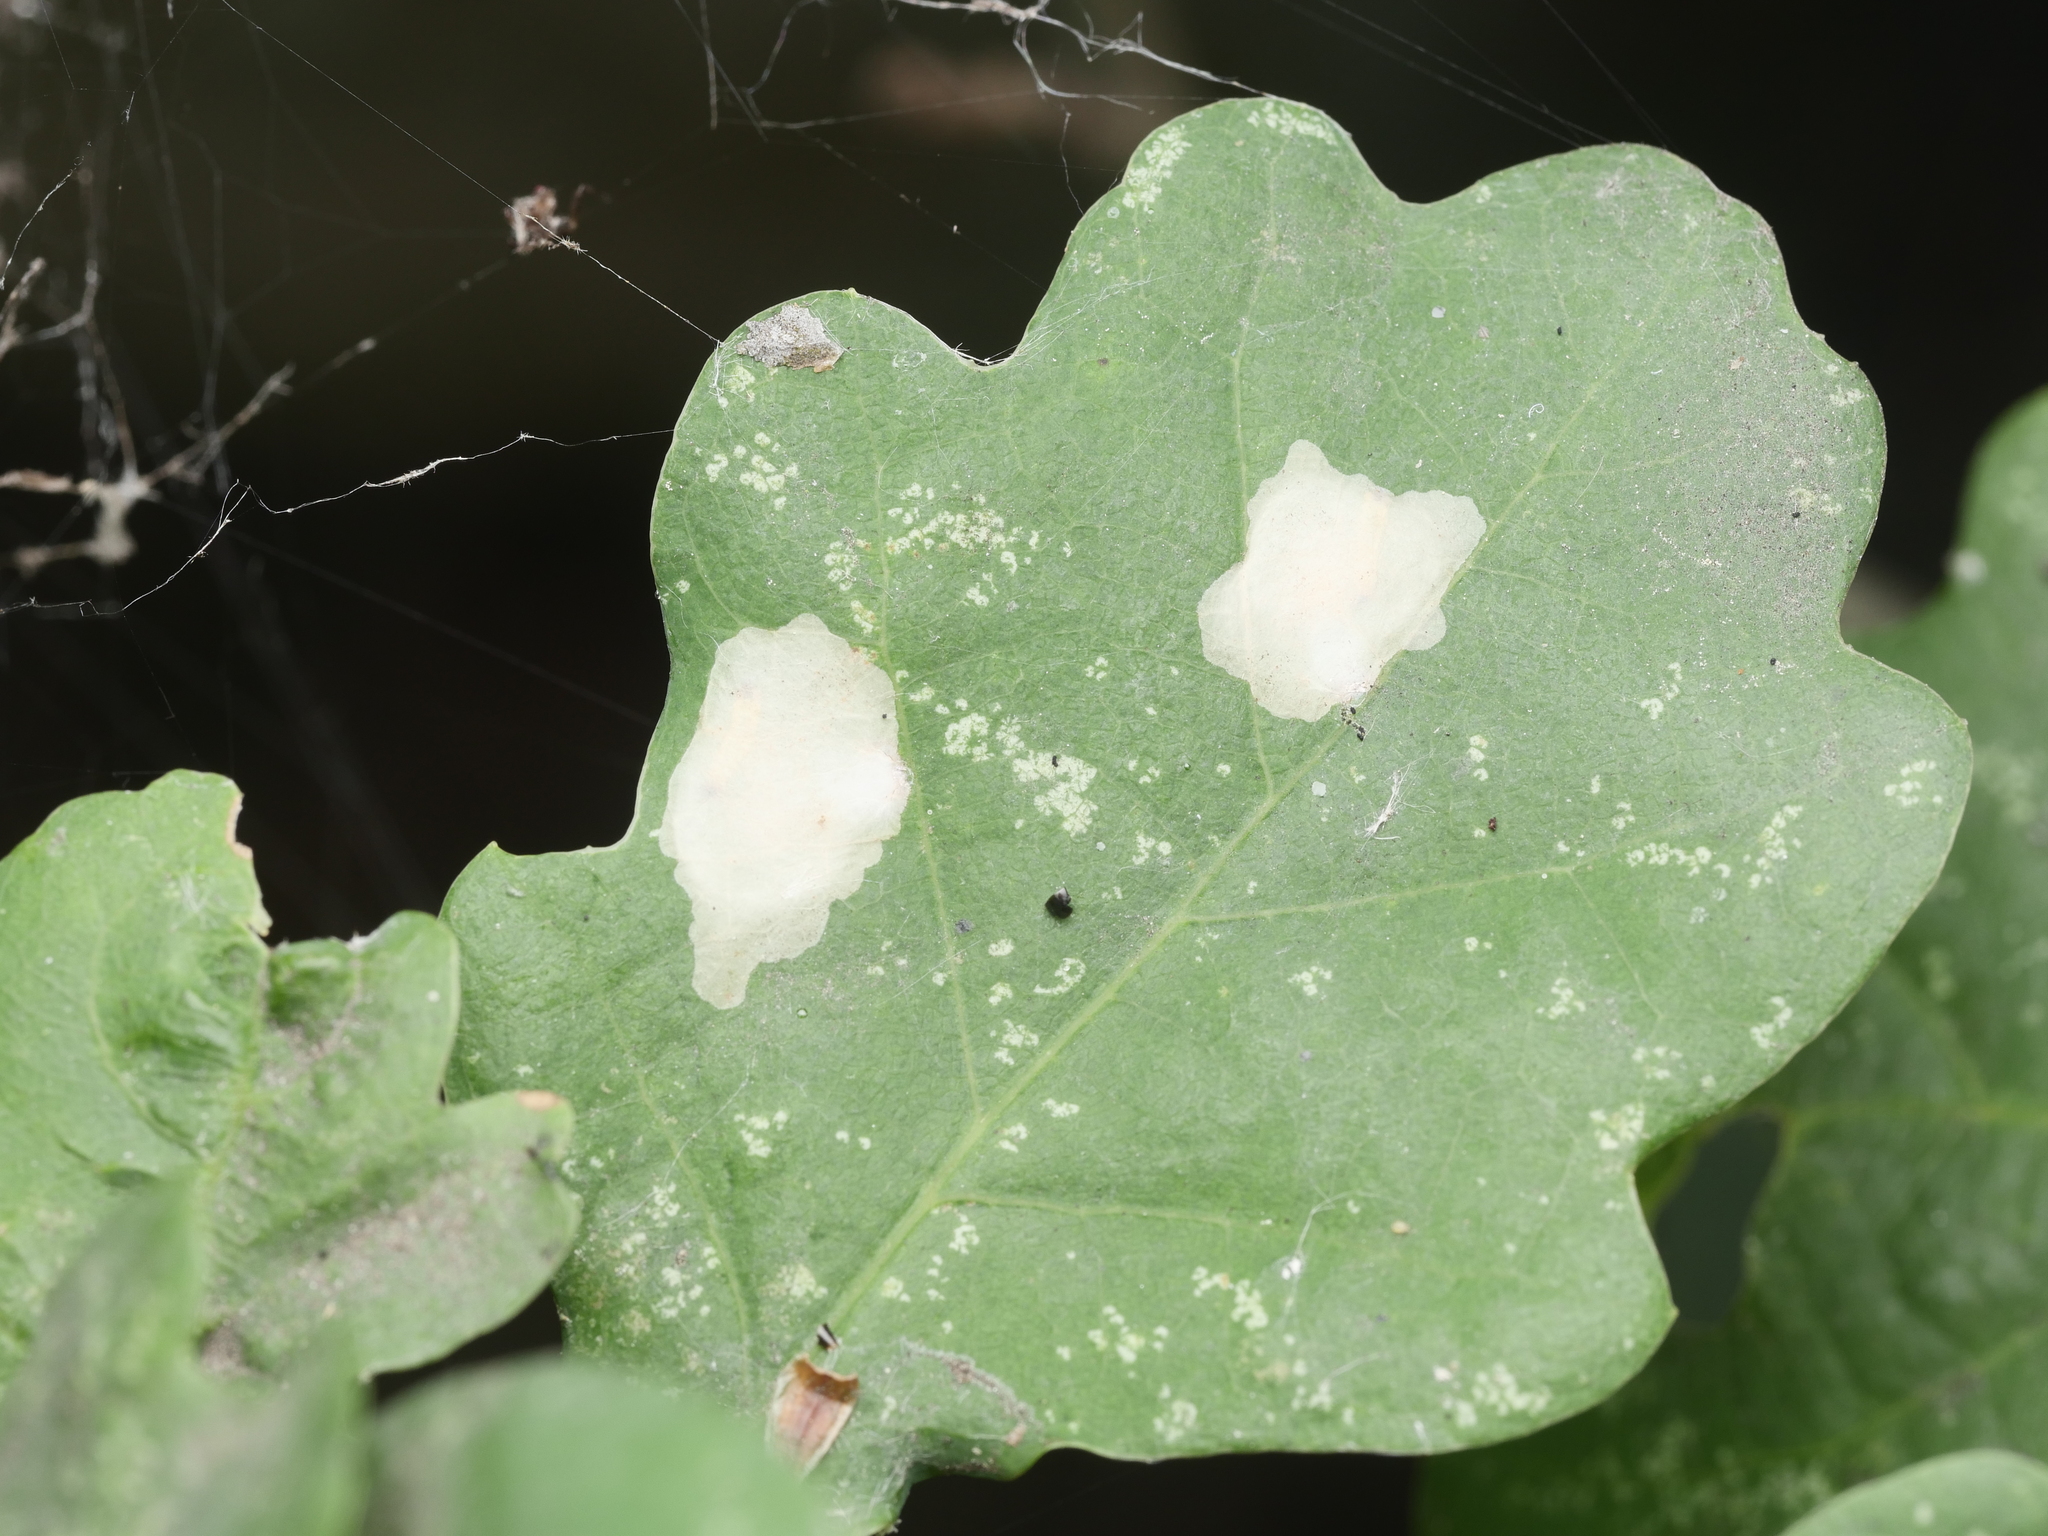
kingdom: Animalia
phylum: Arthropoda
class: Insecta
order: Lepidoptera
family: Tischeriidae
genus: Tischeria
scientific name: Tischeria ekebladella
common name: Oak carl
